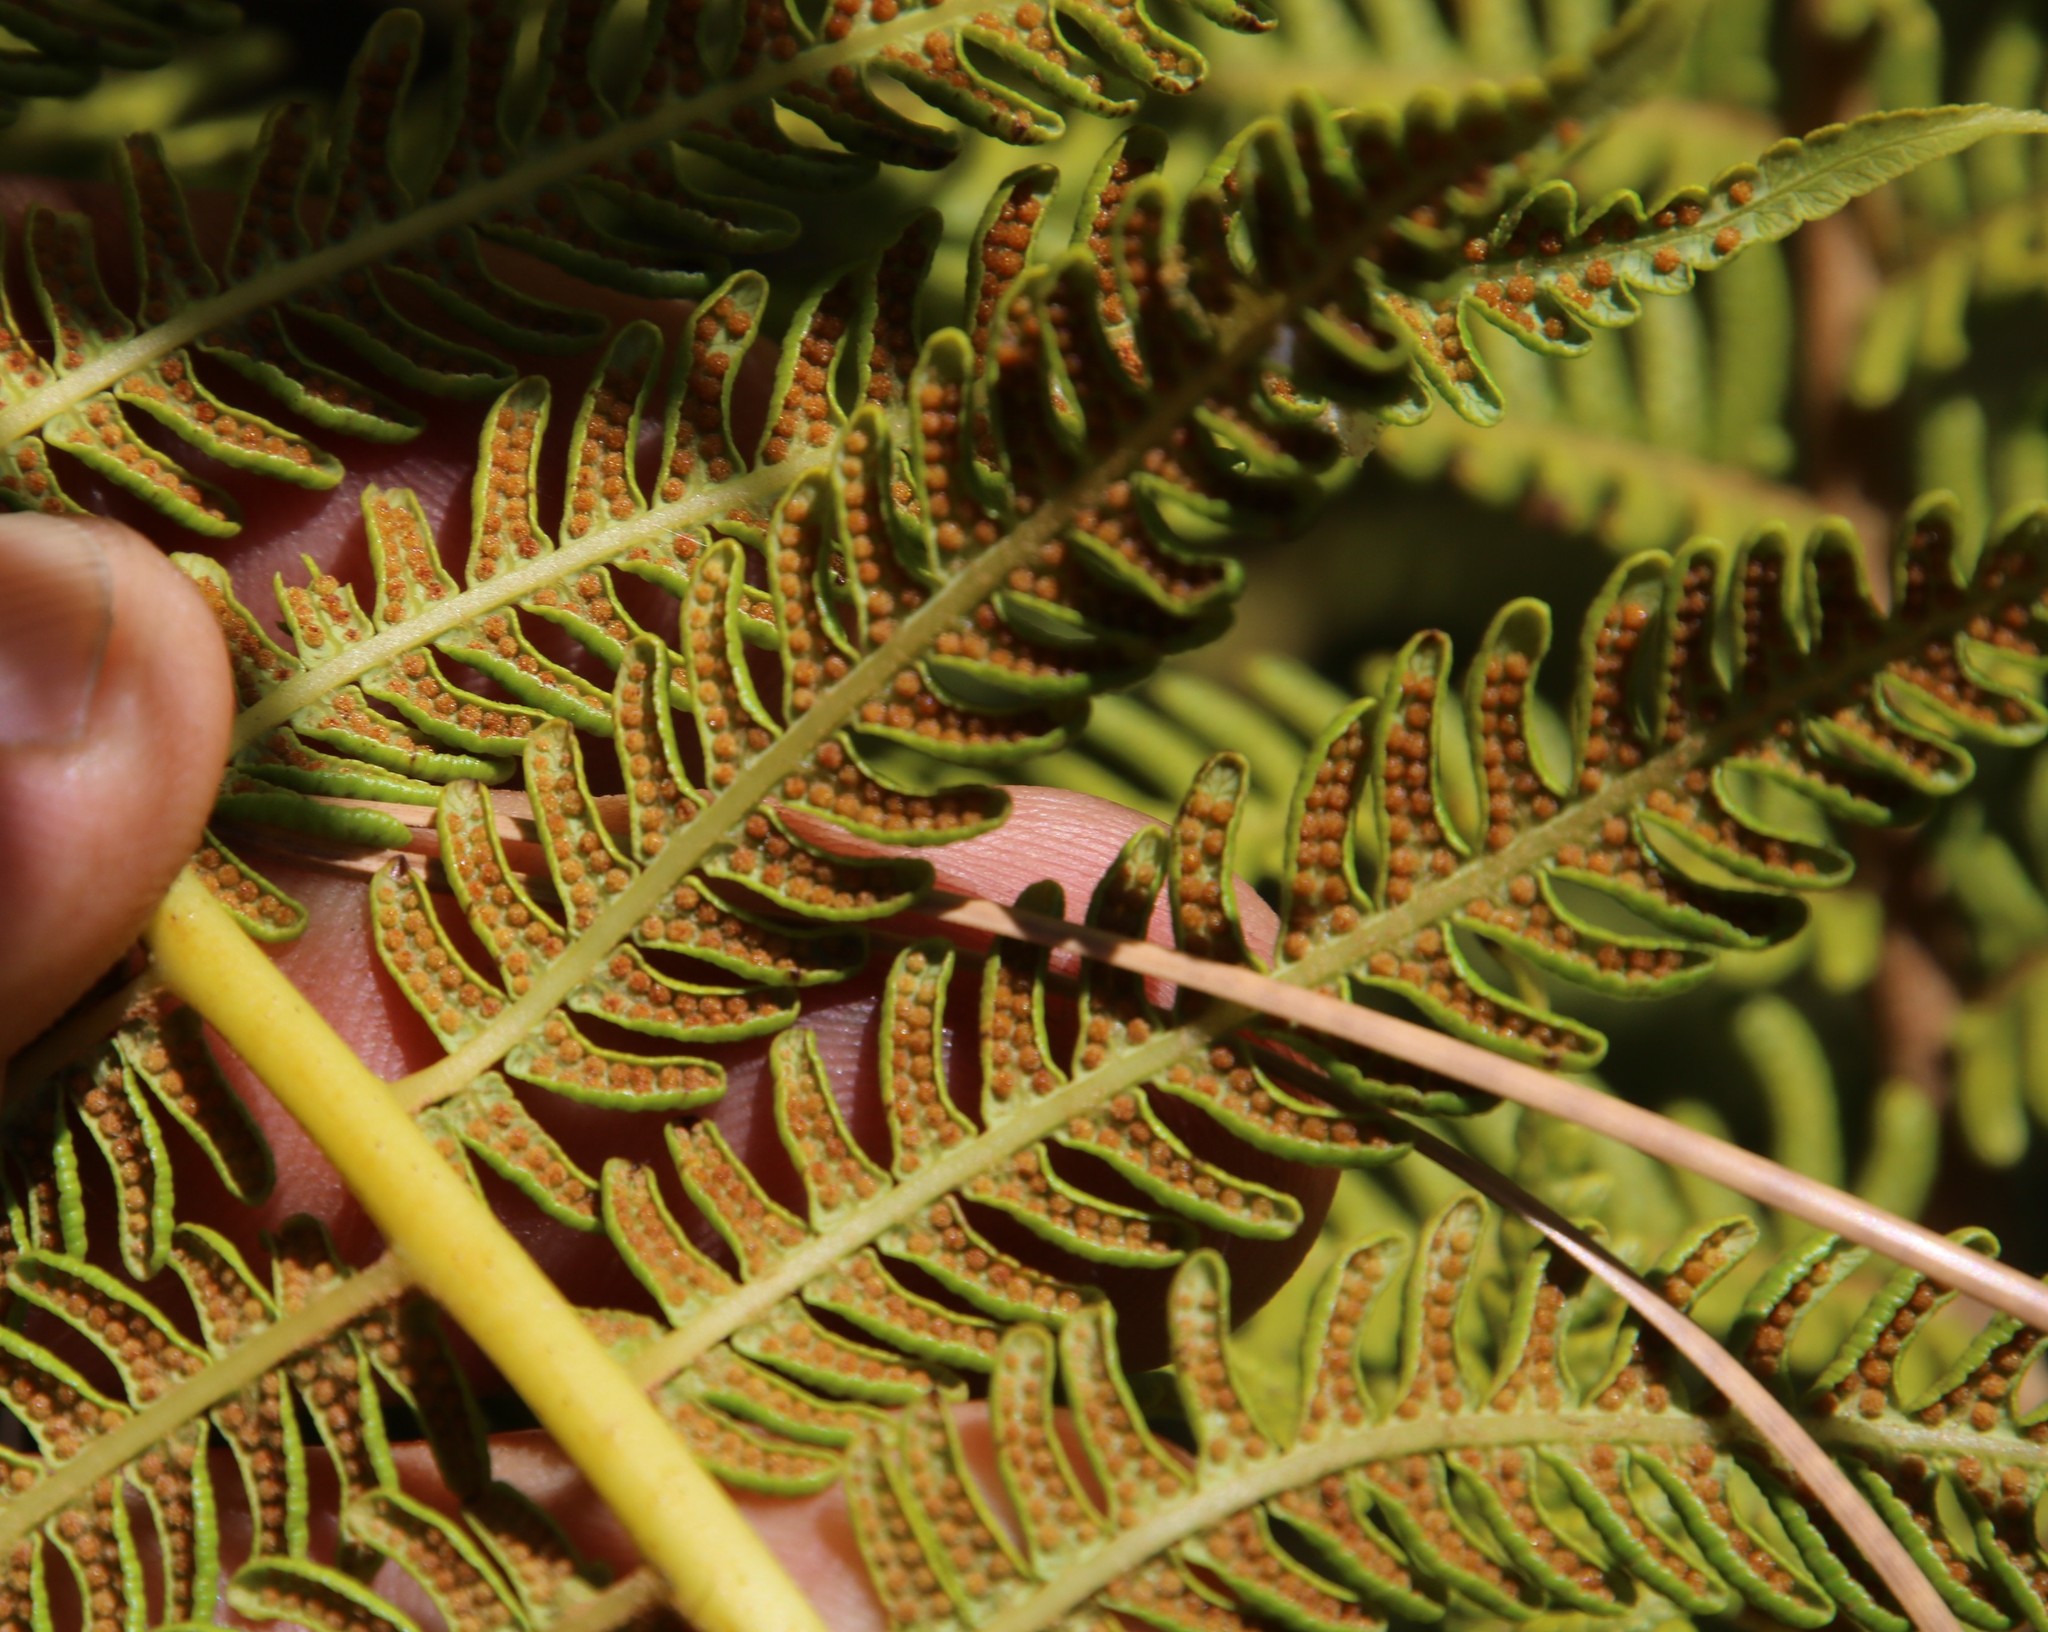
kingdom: Plantae
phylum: Tracheophyta
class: Polypodiopsida
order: Cyatheales
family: Cyatheaceae
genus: Sphaeropteris
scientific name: Sphaeropteris cooperi
